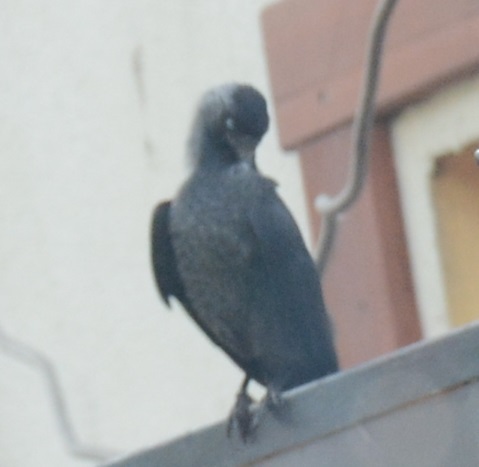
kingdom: Animalia
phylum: Chordata
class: Aves
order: Passeriformes
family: Corvidae
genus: Coloeus
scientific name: Coloeus monedula
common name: Western jackdaw
